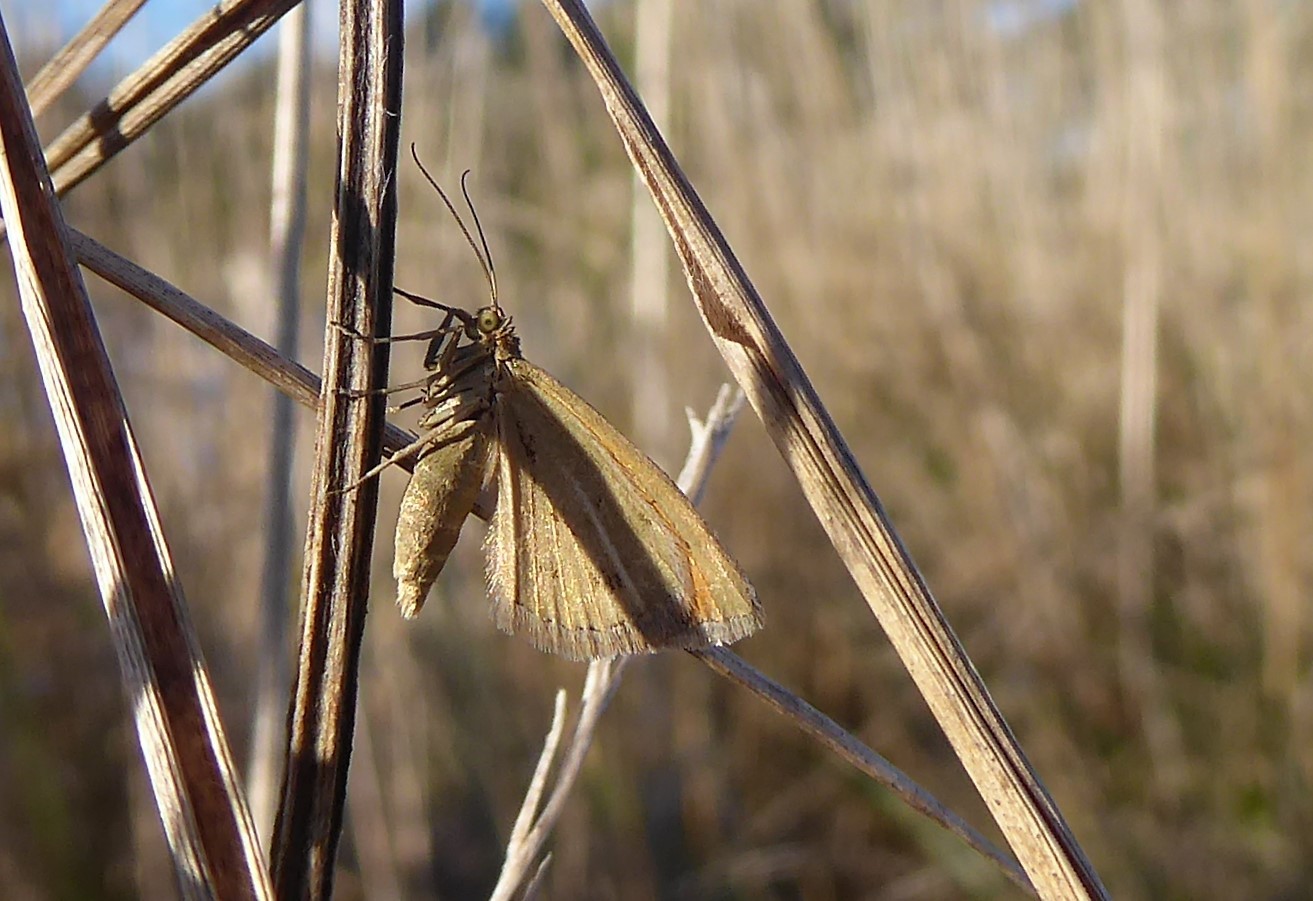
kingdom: Animalia
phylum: Arthropoda
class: Insecta
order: Lepidoptera
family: Geometridae
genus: Asaphodes
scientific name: Asaphodes abrogata
